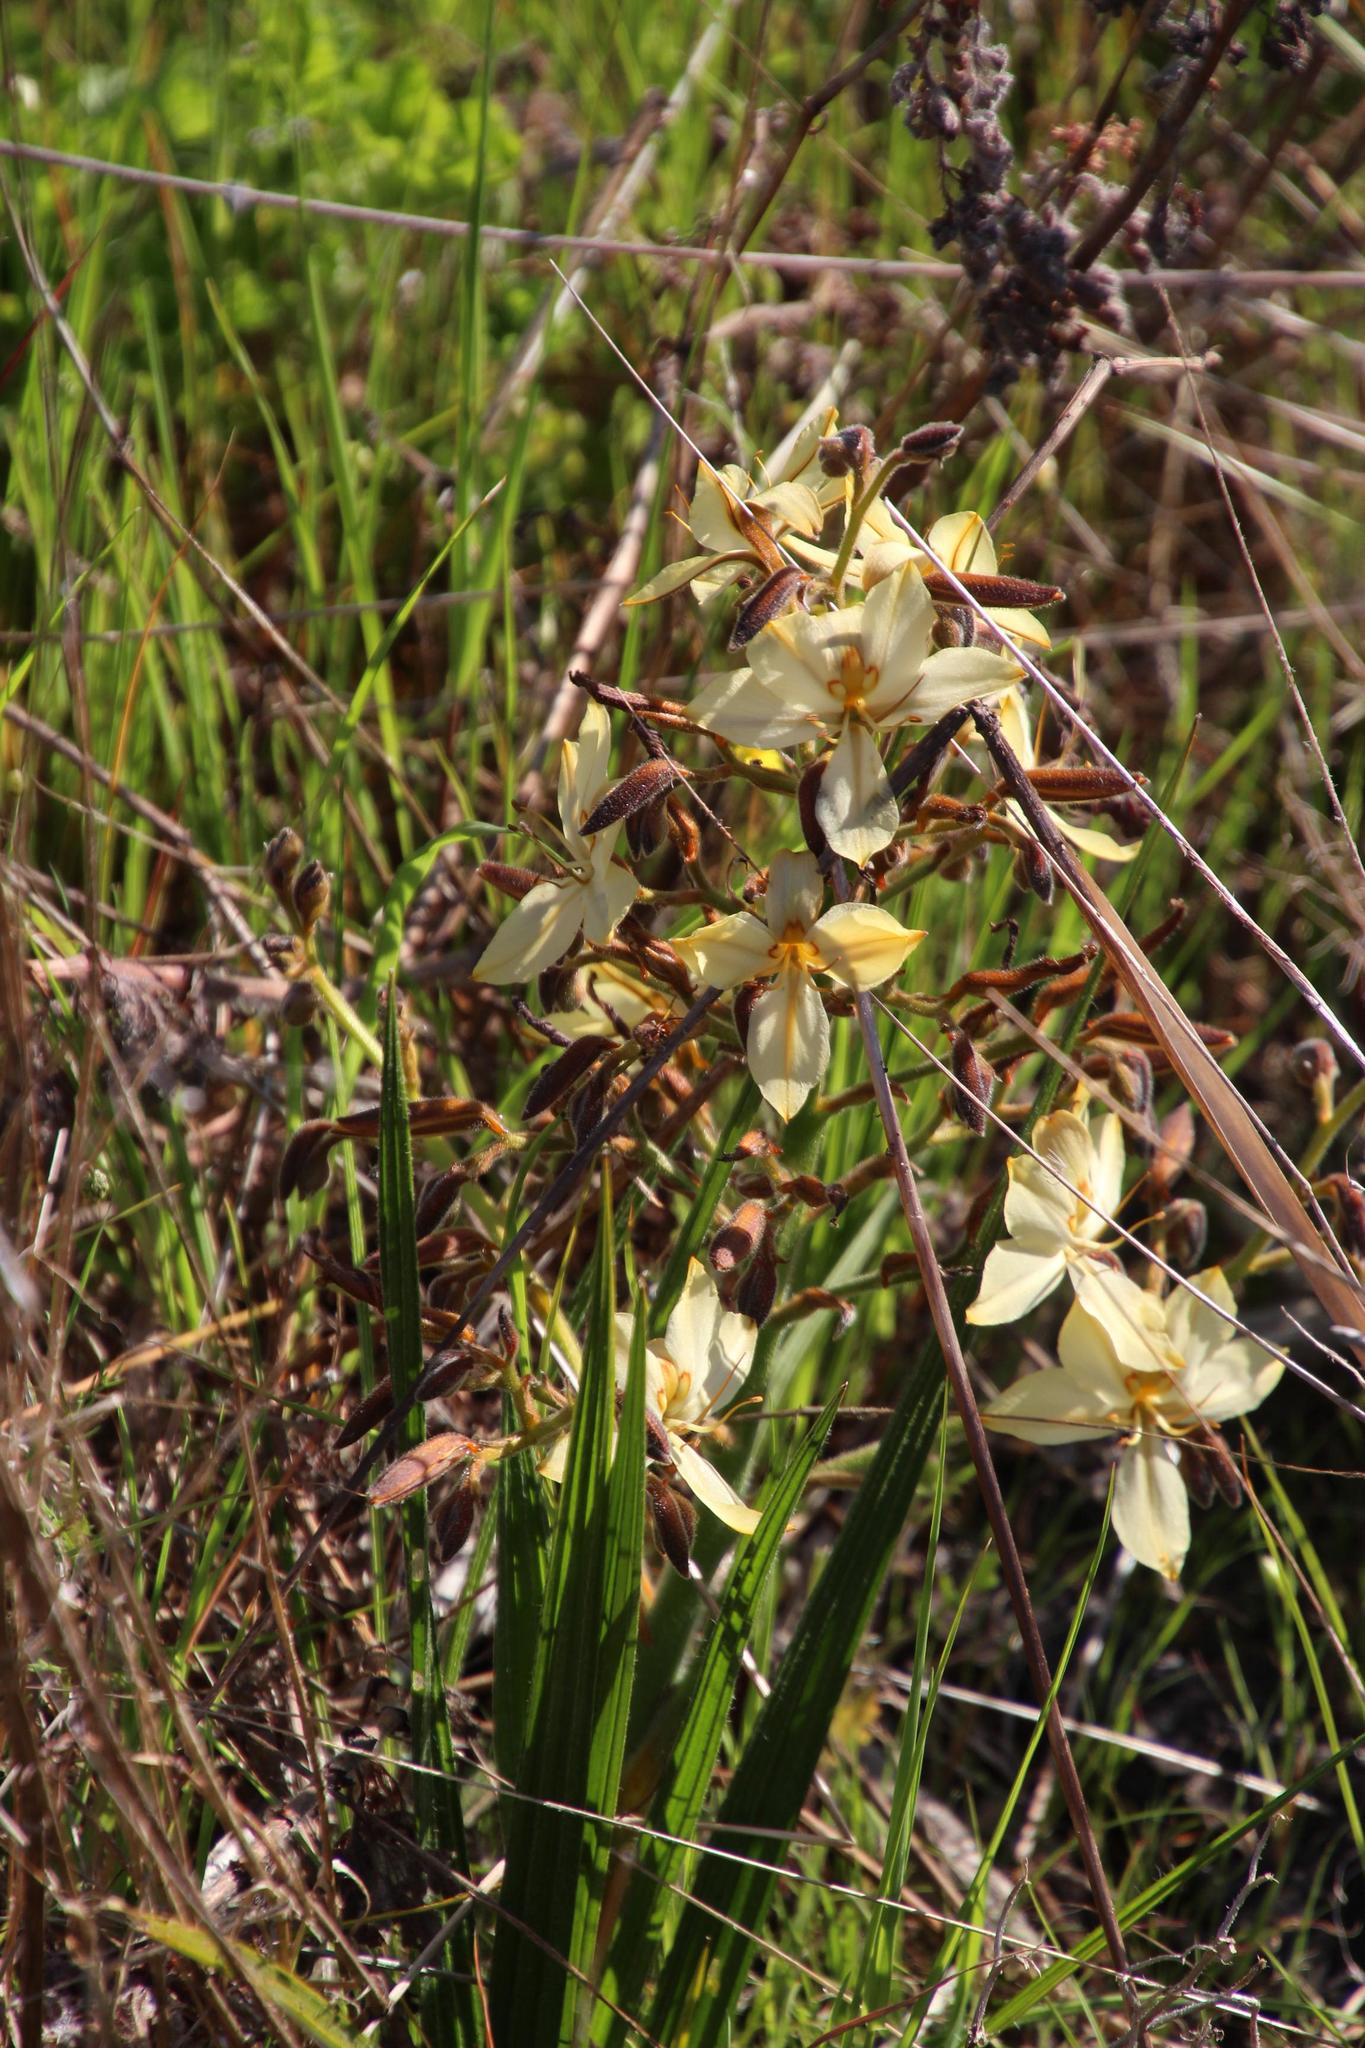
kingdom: Plantae
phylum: Tracheophyta
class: Liliopsida
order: Commelinales
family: Haemodoraceae
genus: Wachendorfia
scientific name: Wachendorfia paniculata
